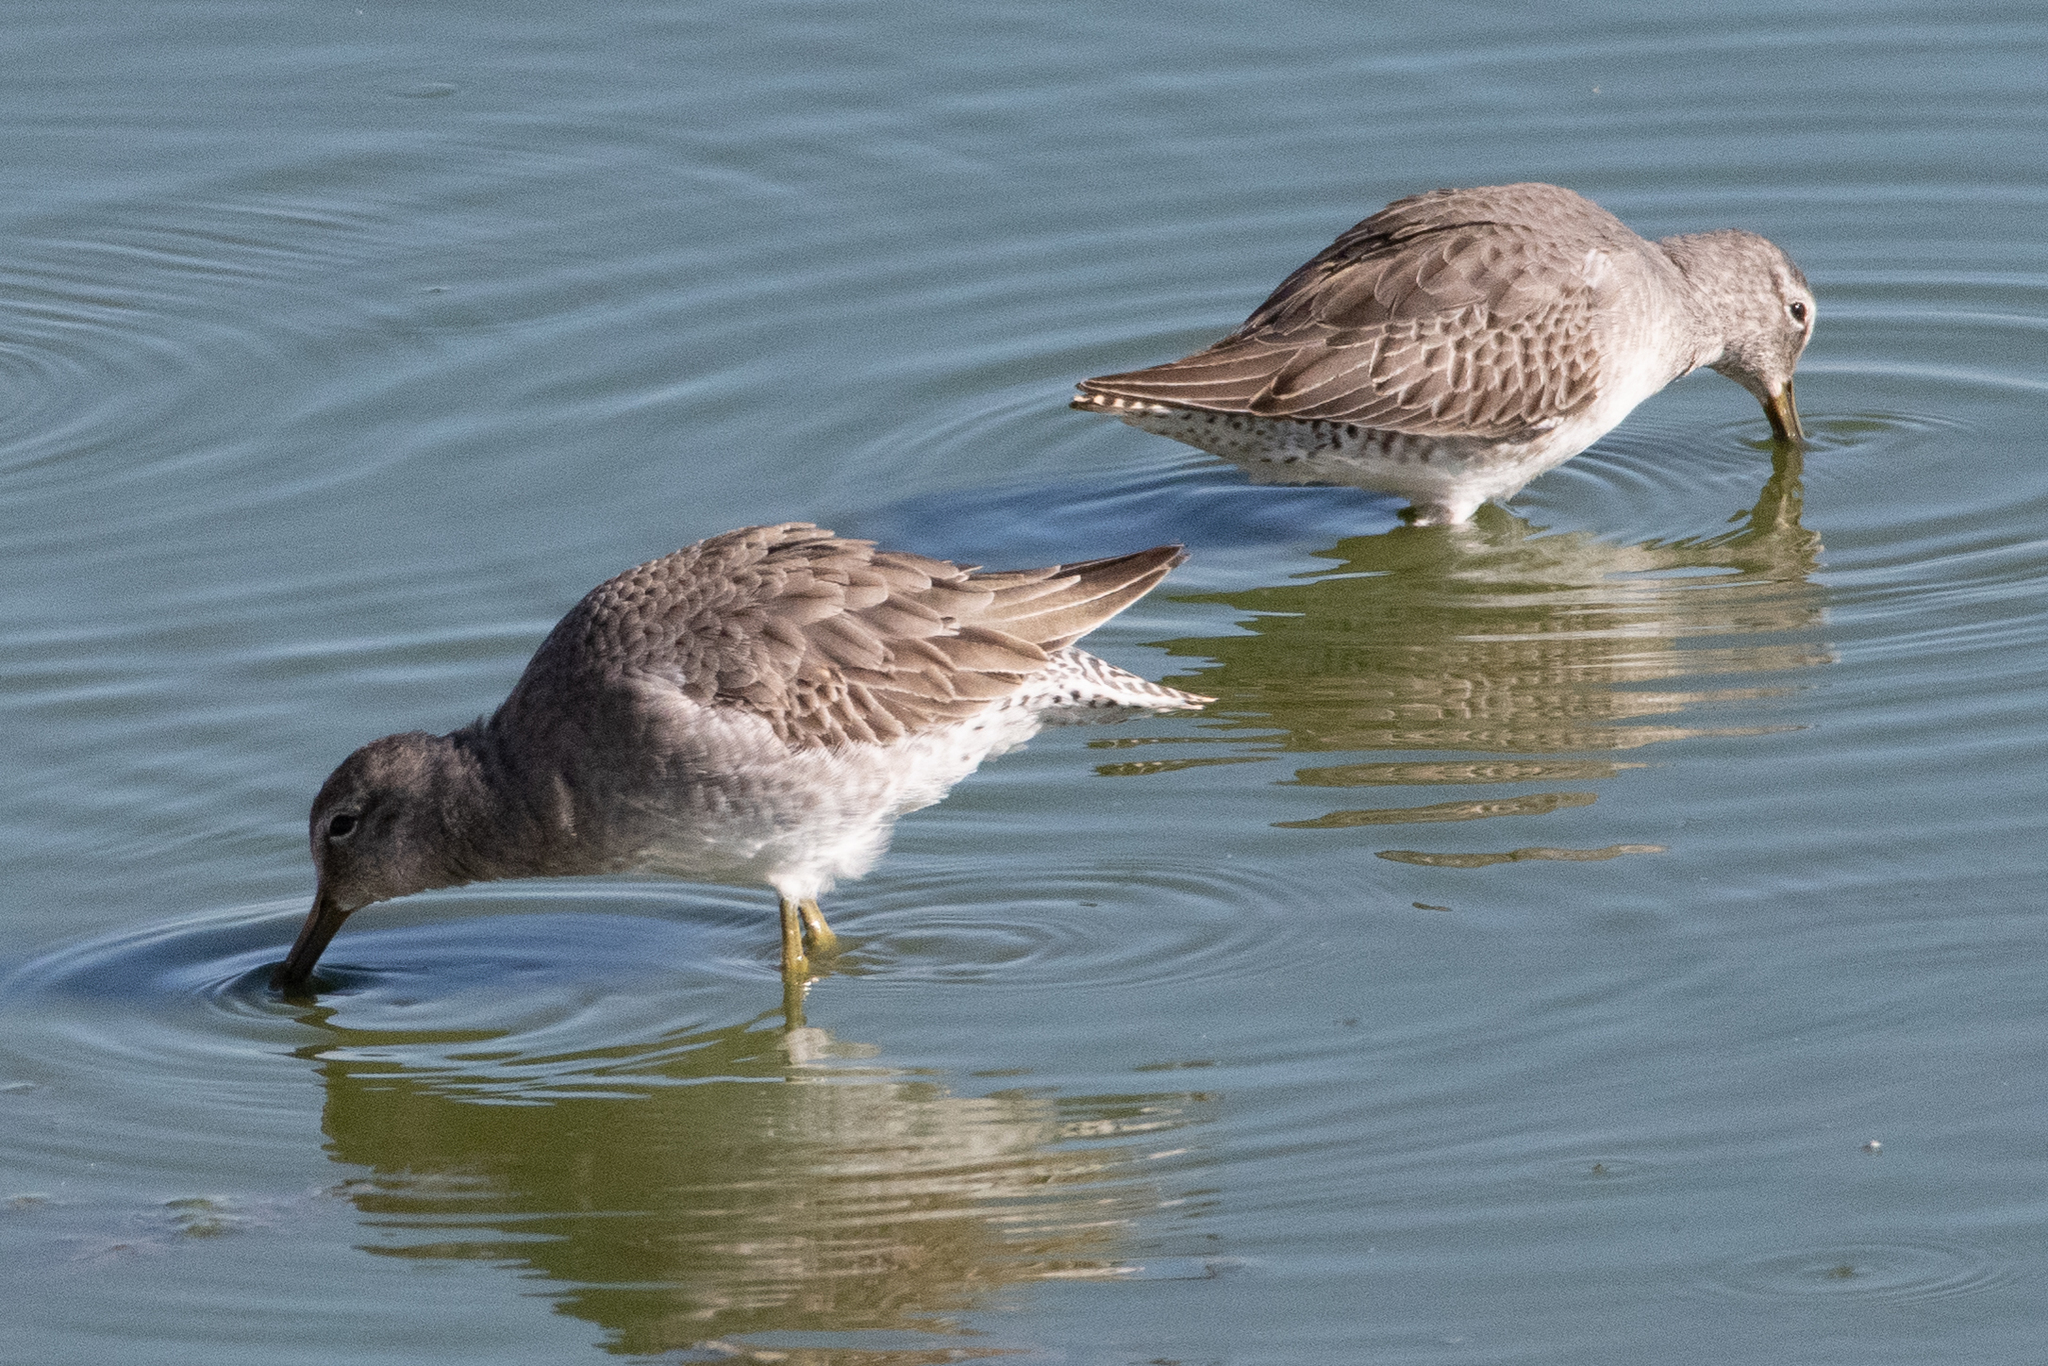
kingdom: Animalia
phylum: Chordata
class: Aves
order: Charadriiformes
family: Scolopacidae
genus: Limnodromus
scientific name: Limnodromus scolopaceus
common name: Long-billed dowitcher
